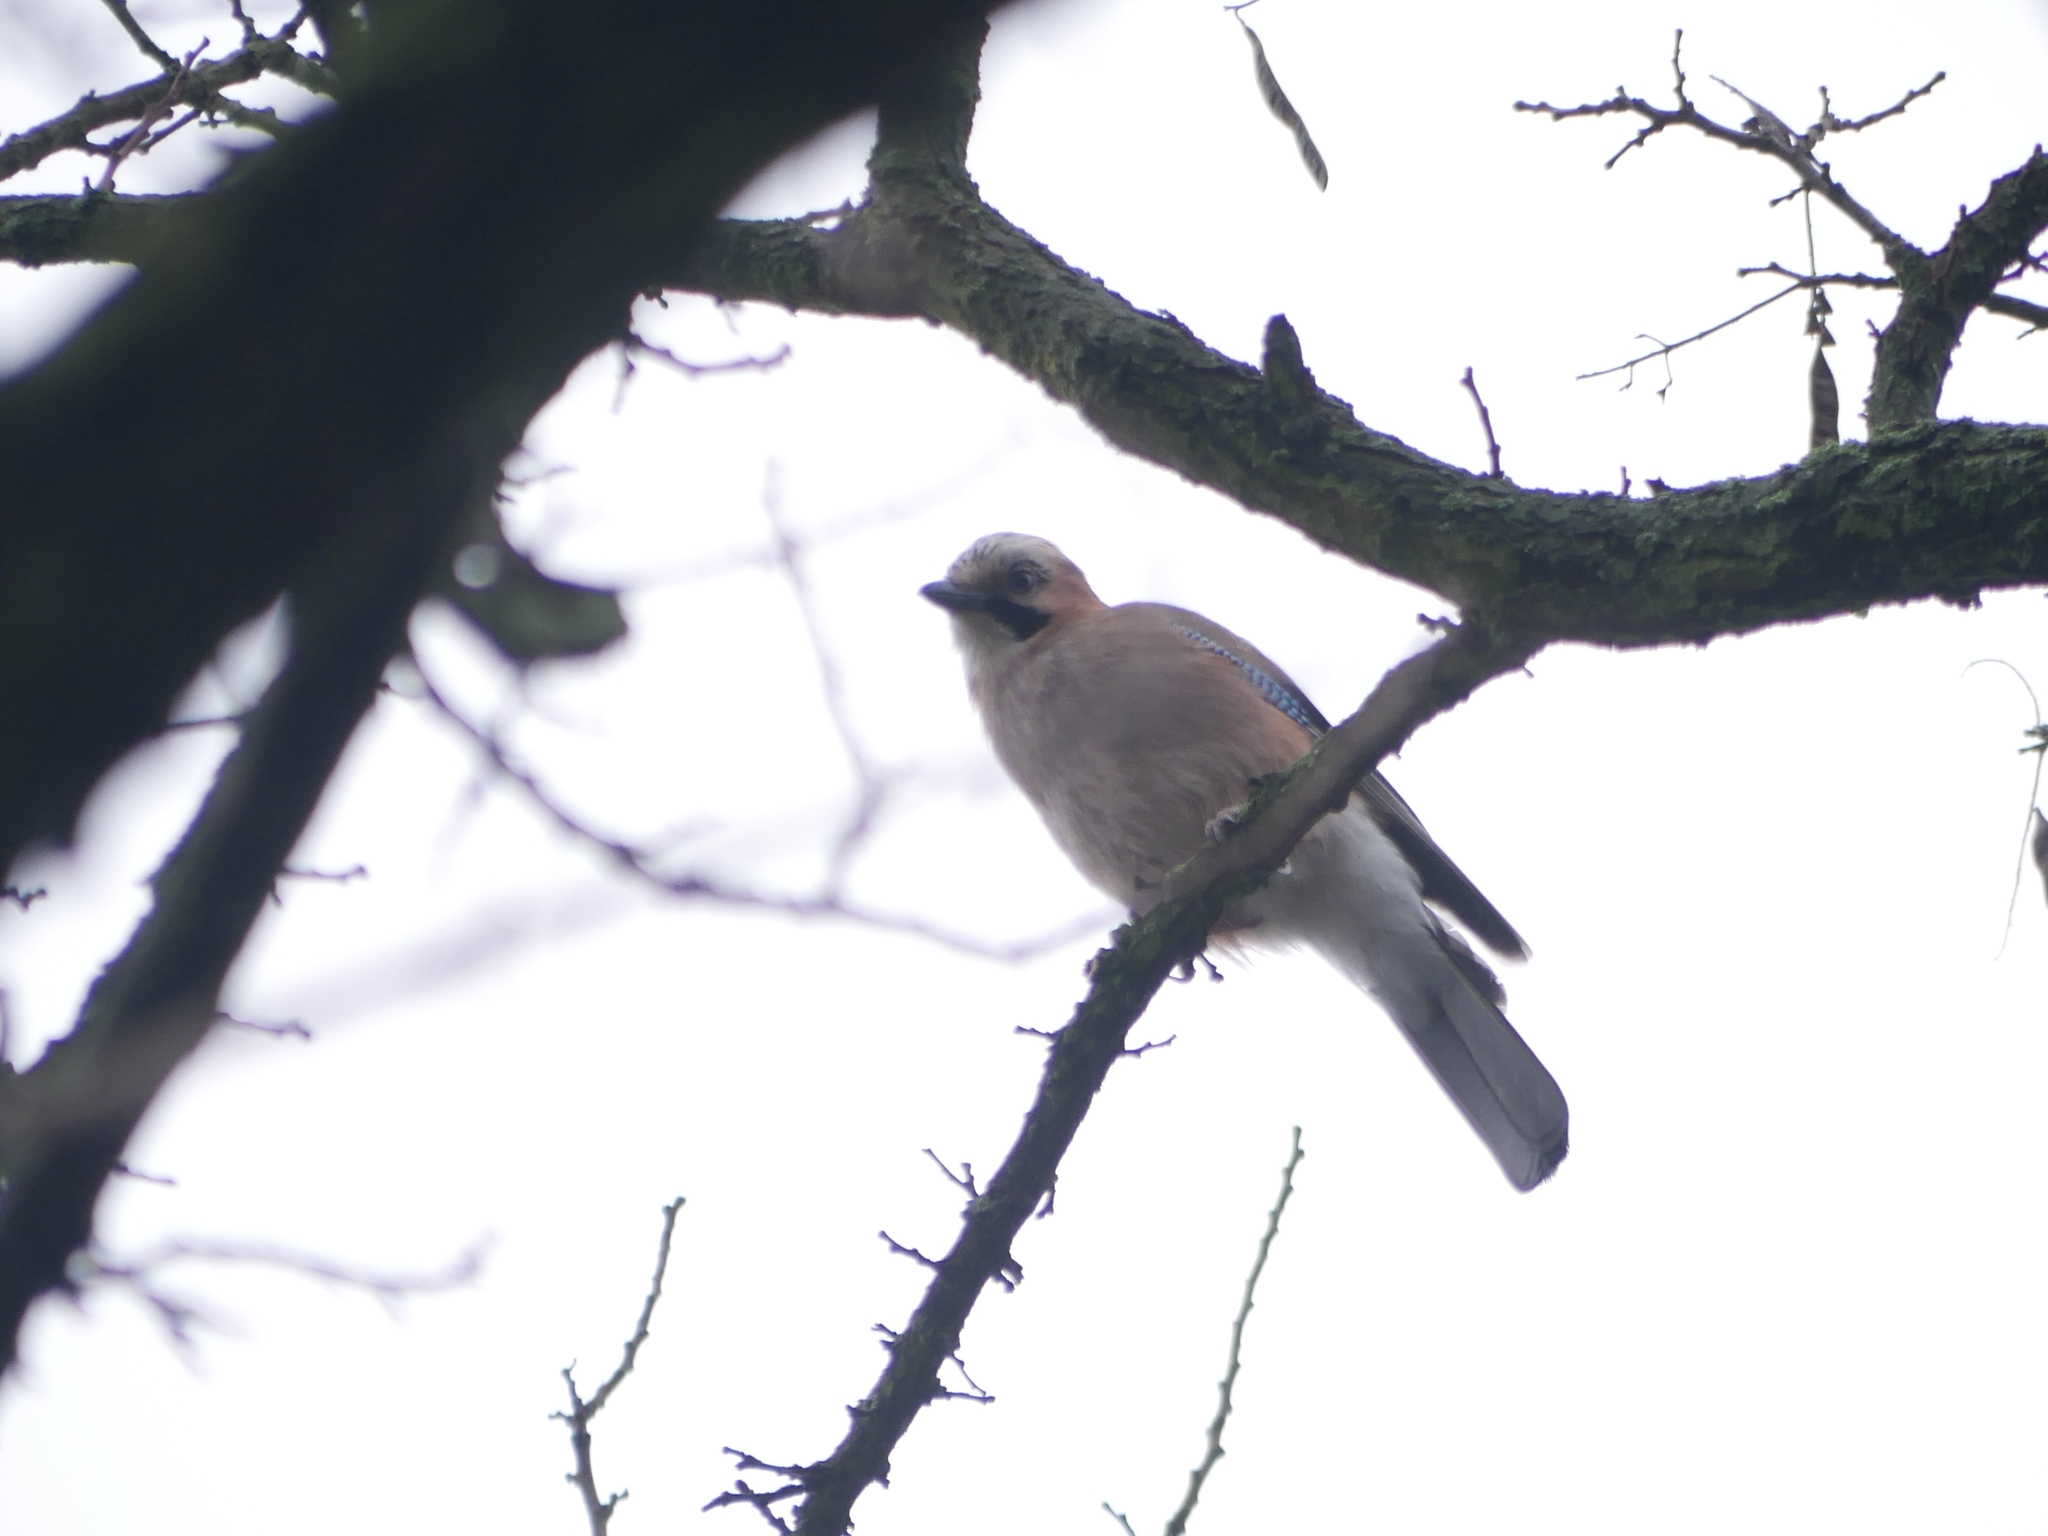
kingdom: Animalia
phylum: Chordata
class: Aves
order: Passeriformes
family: Corvidae
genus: Garrulus
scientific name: Garrulus glandarius
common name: Eurasian jay
